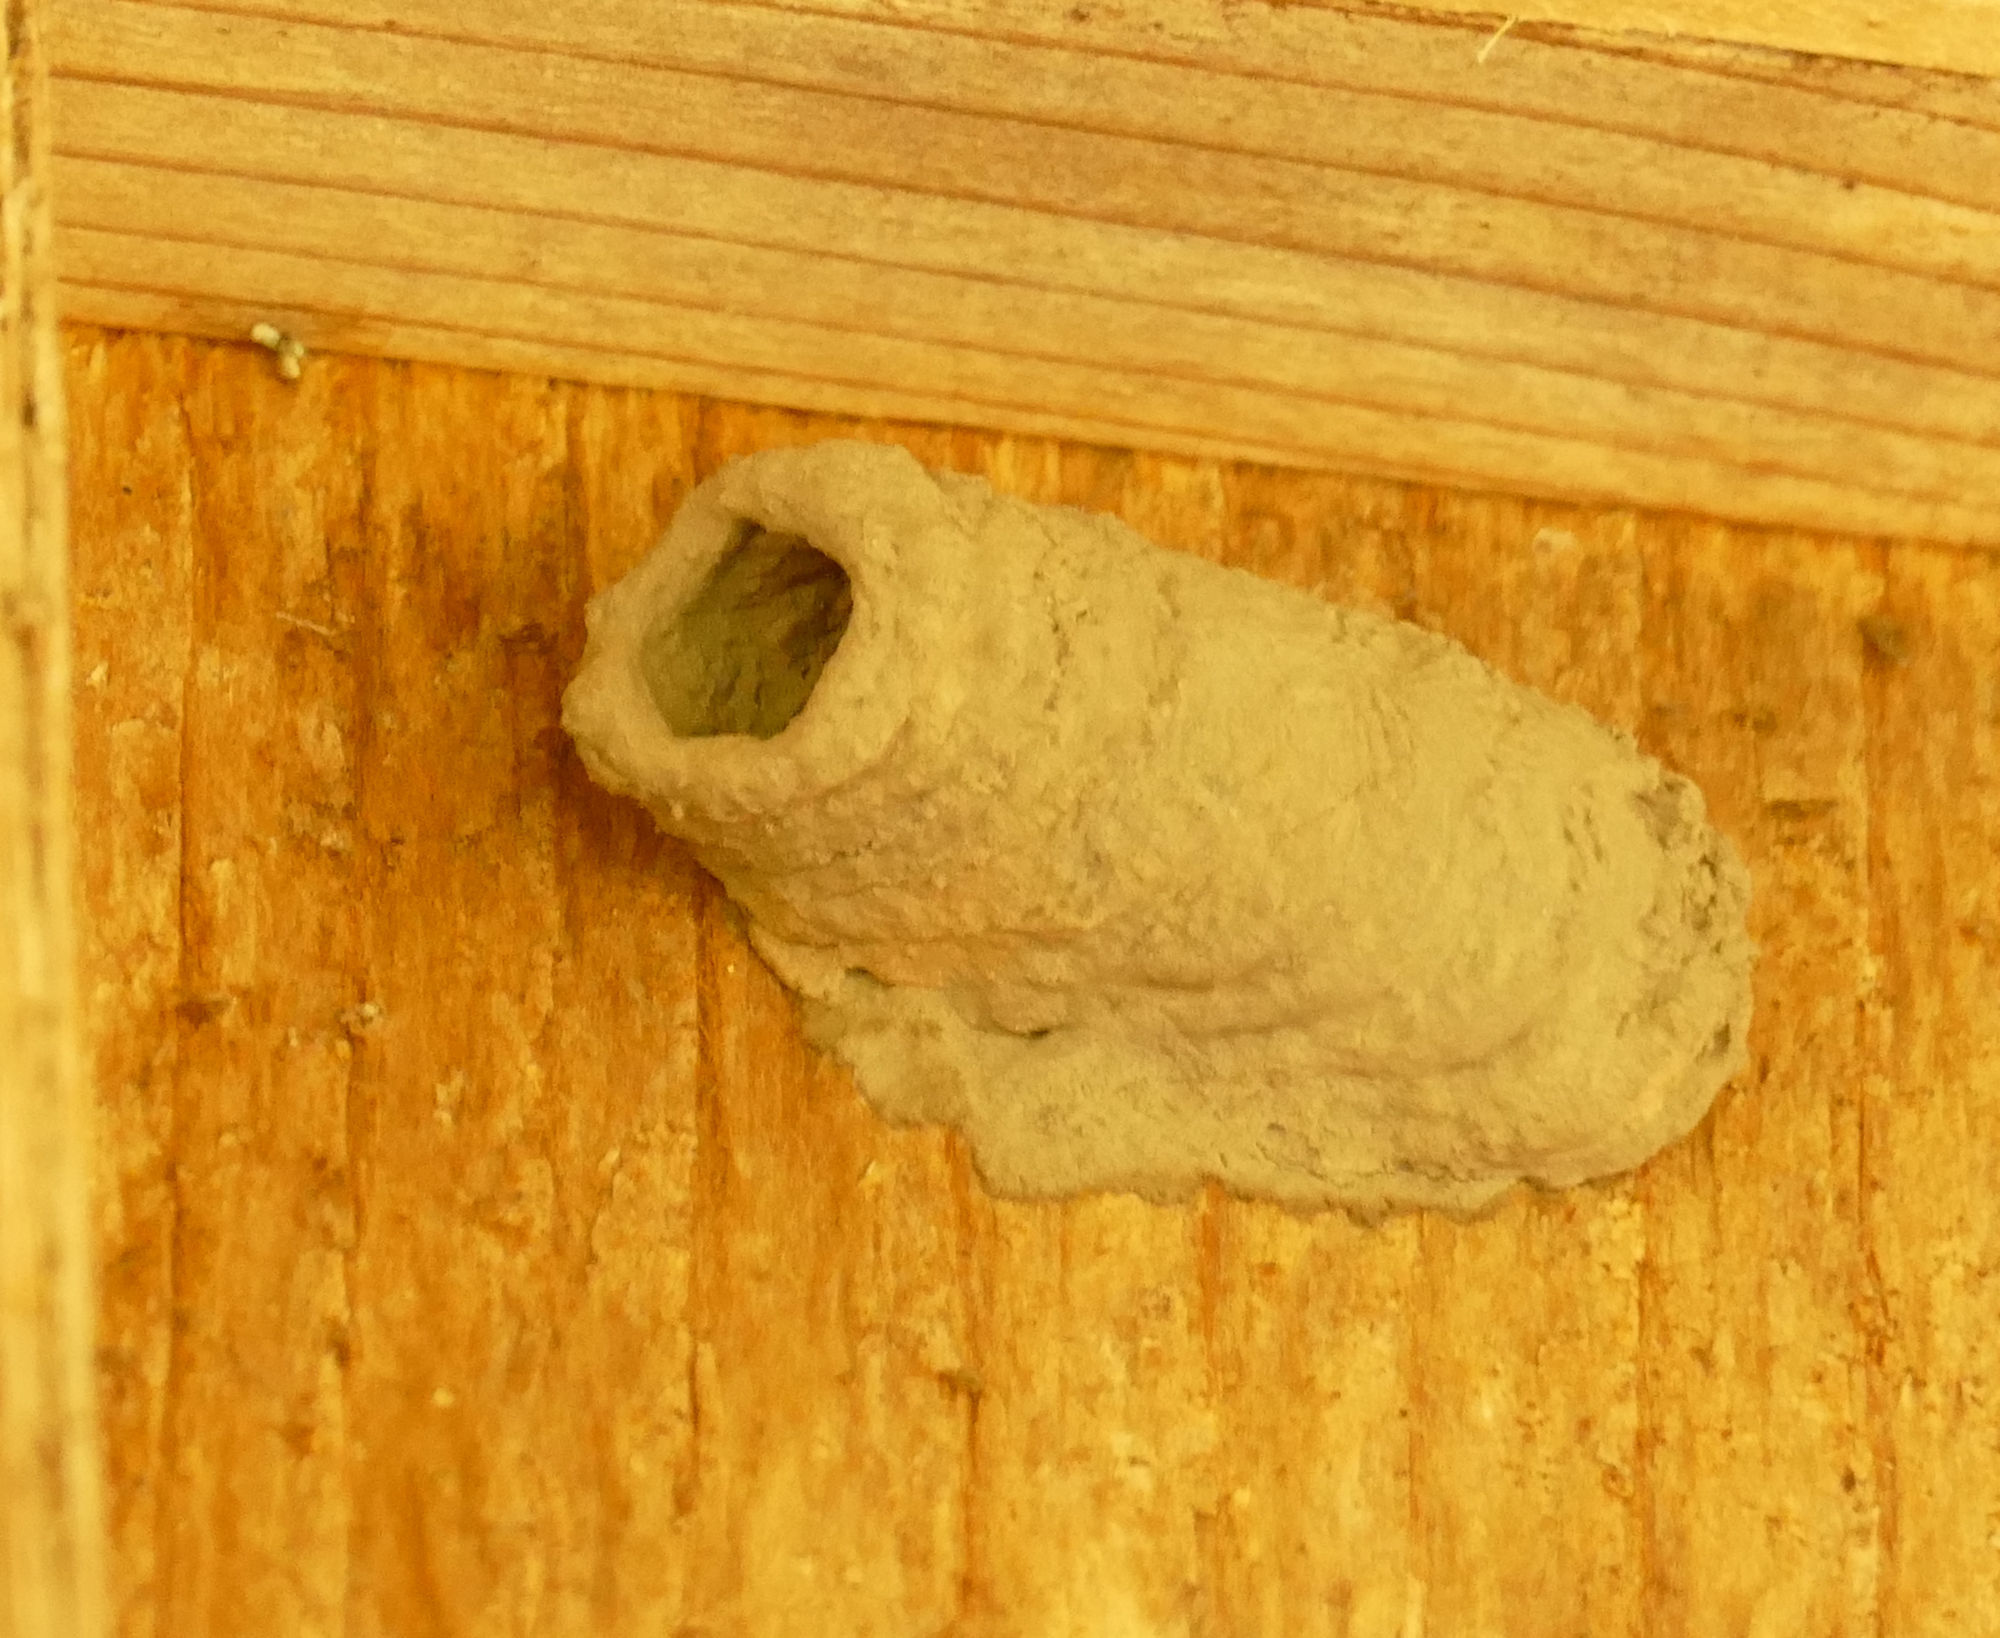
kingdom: Animalia
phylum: Arthropoda
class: Insecta
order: Hymenoptera
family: Sphecidae
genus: Sceliphron
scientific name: Sceliphron caementarium
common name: Mud dauber
